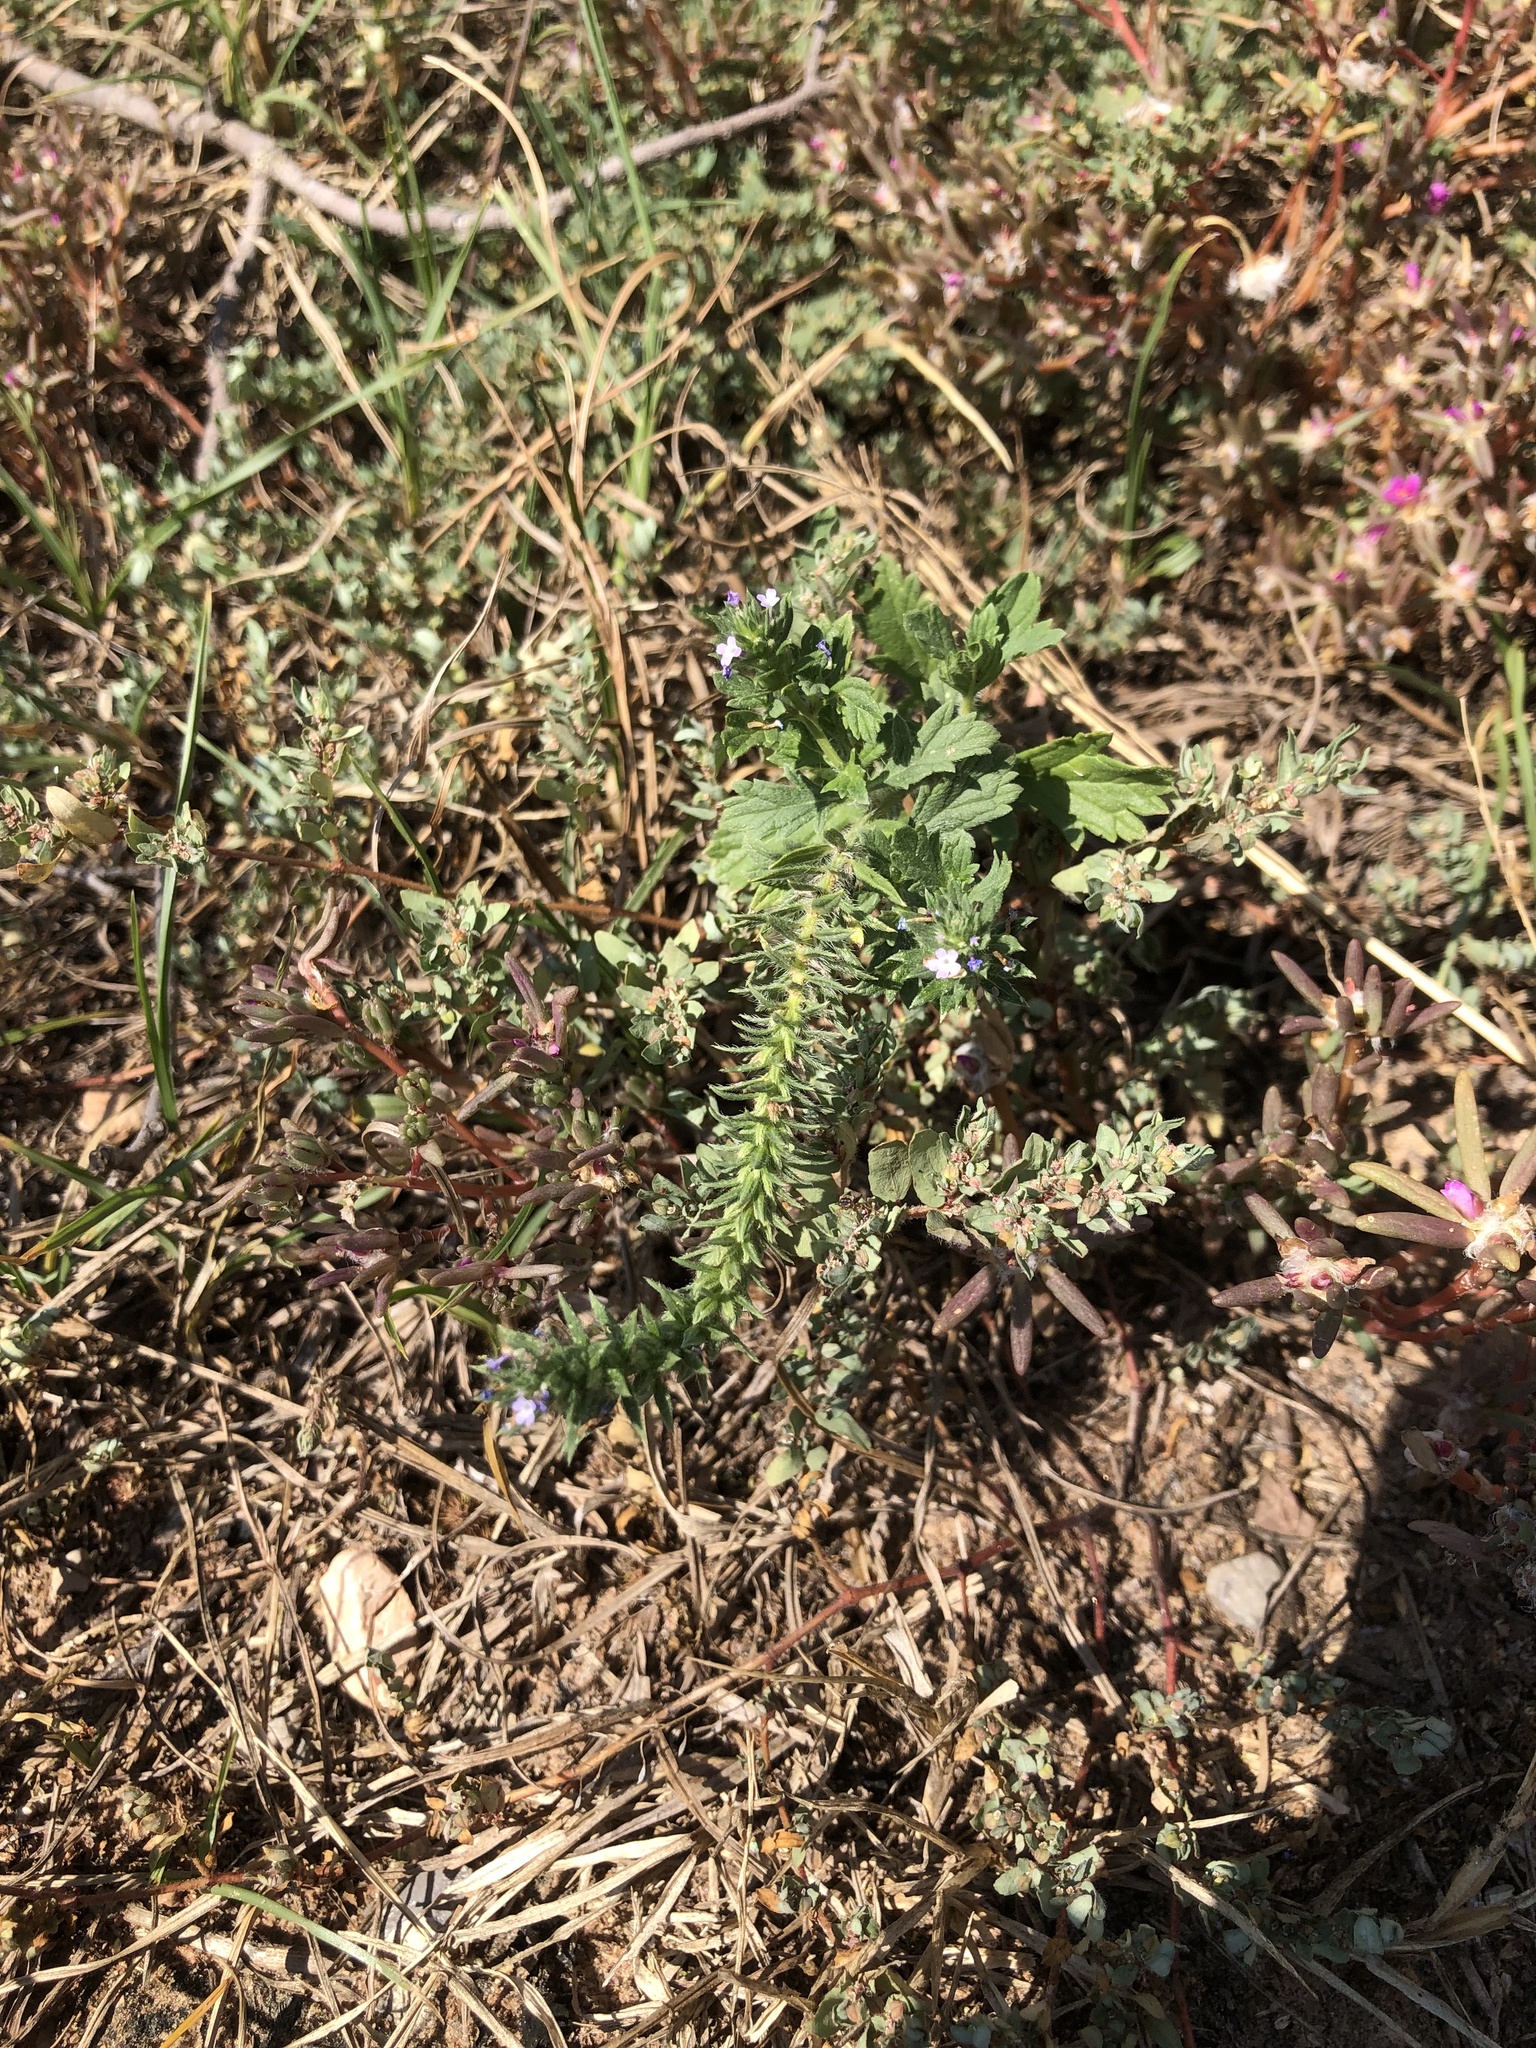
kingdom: Plantae
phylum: Tracheophyta
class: Magnoliopsida
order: Lamiales
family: Verbenaceae
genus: Verbena
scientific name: Verbena bracteata
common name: Bracted vervain
